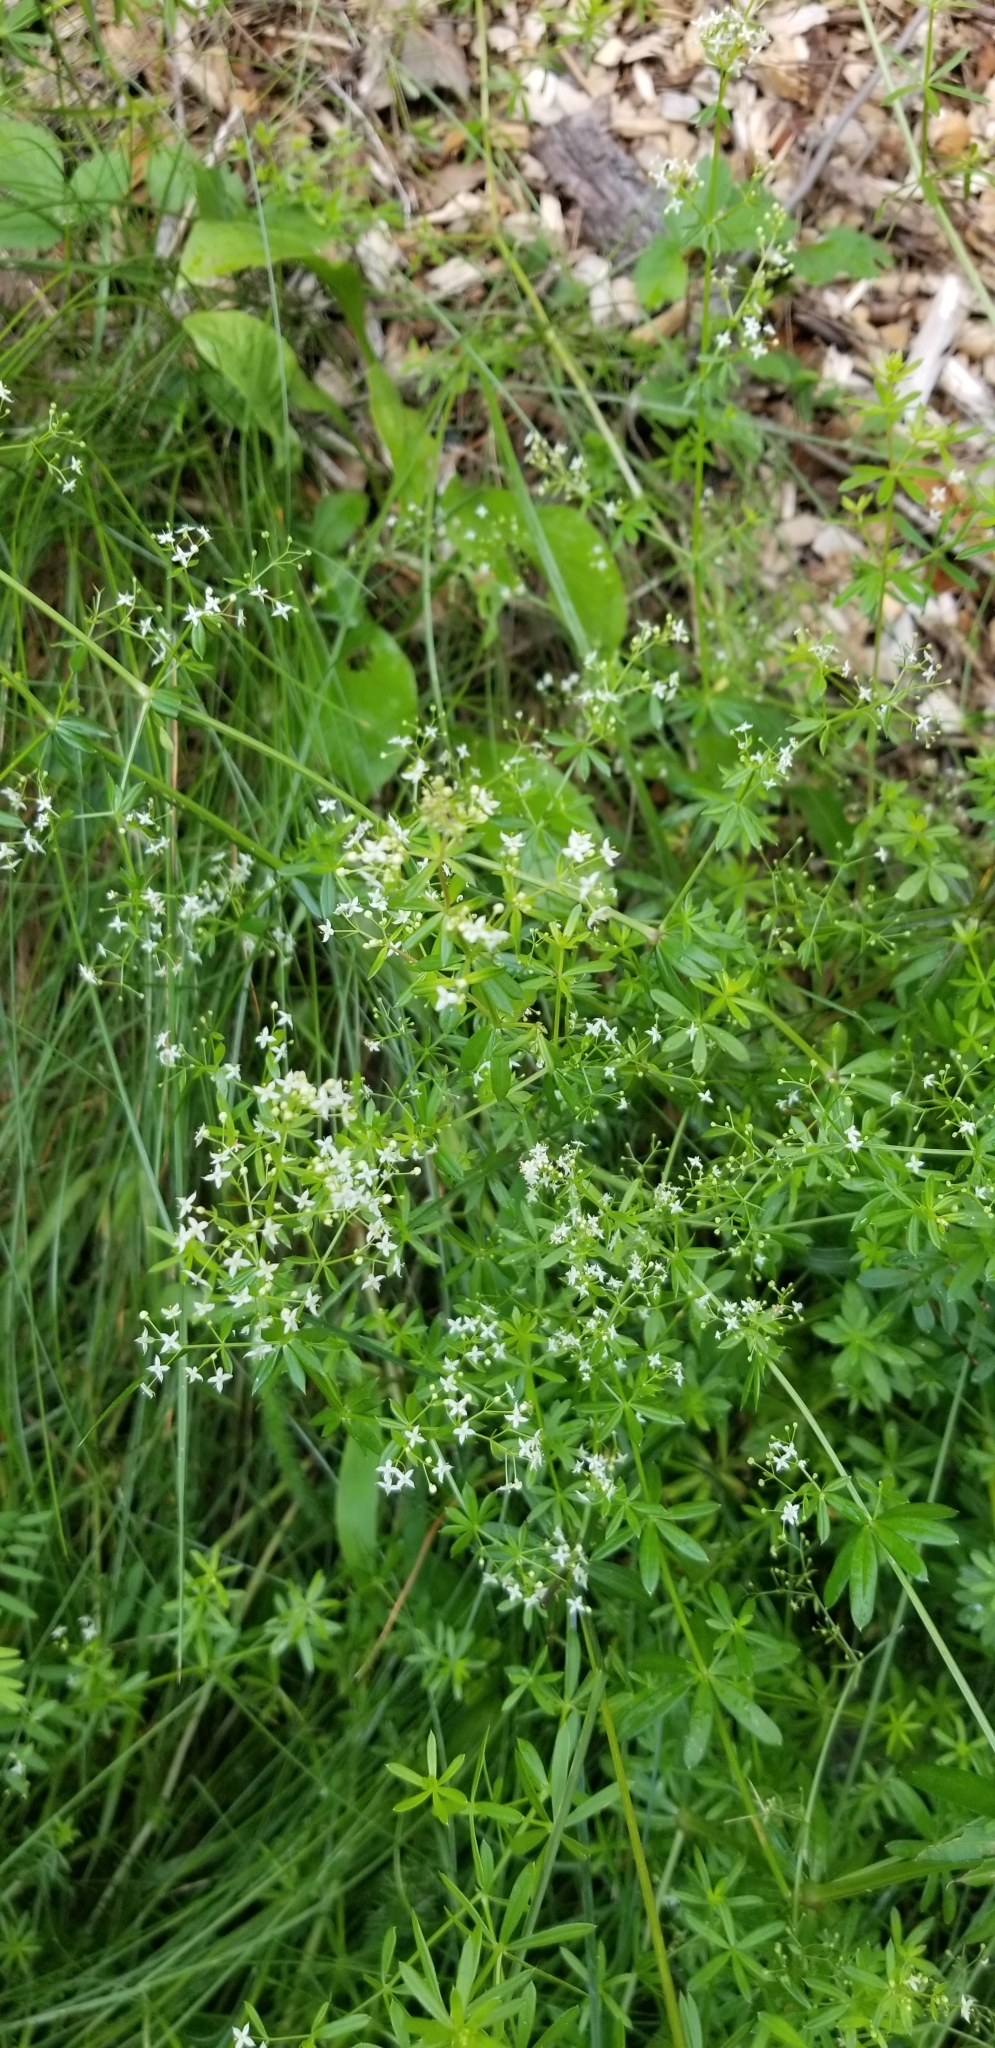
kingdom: Plantae
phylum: Tracheophyta
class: Magnoliopsida
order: Gentianales
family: Rubiaceae
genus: Galium
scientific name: Galium mollugo
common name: Hedge bedstraw
